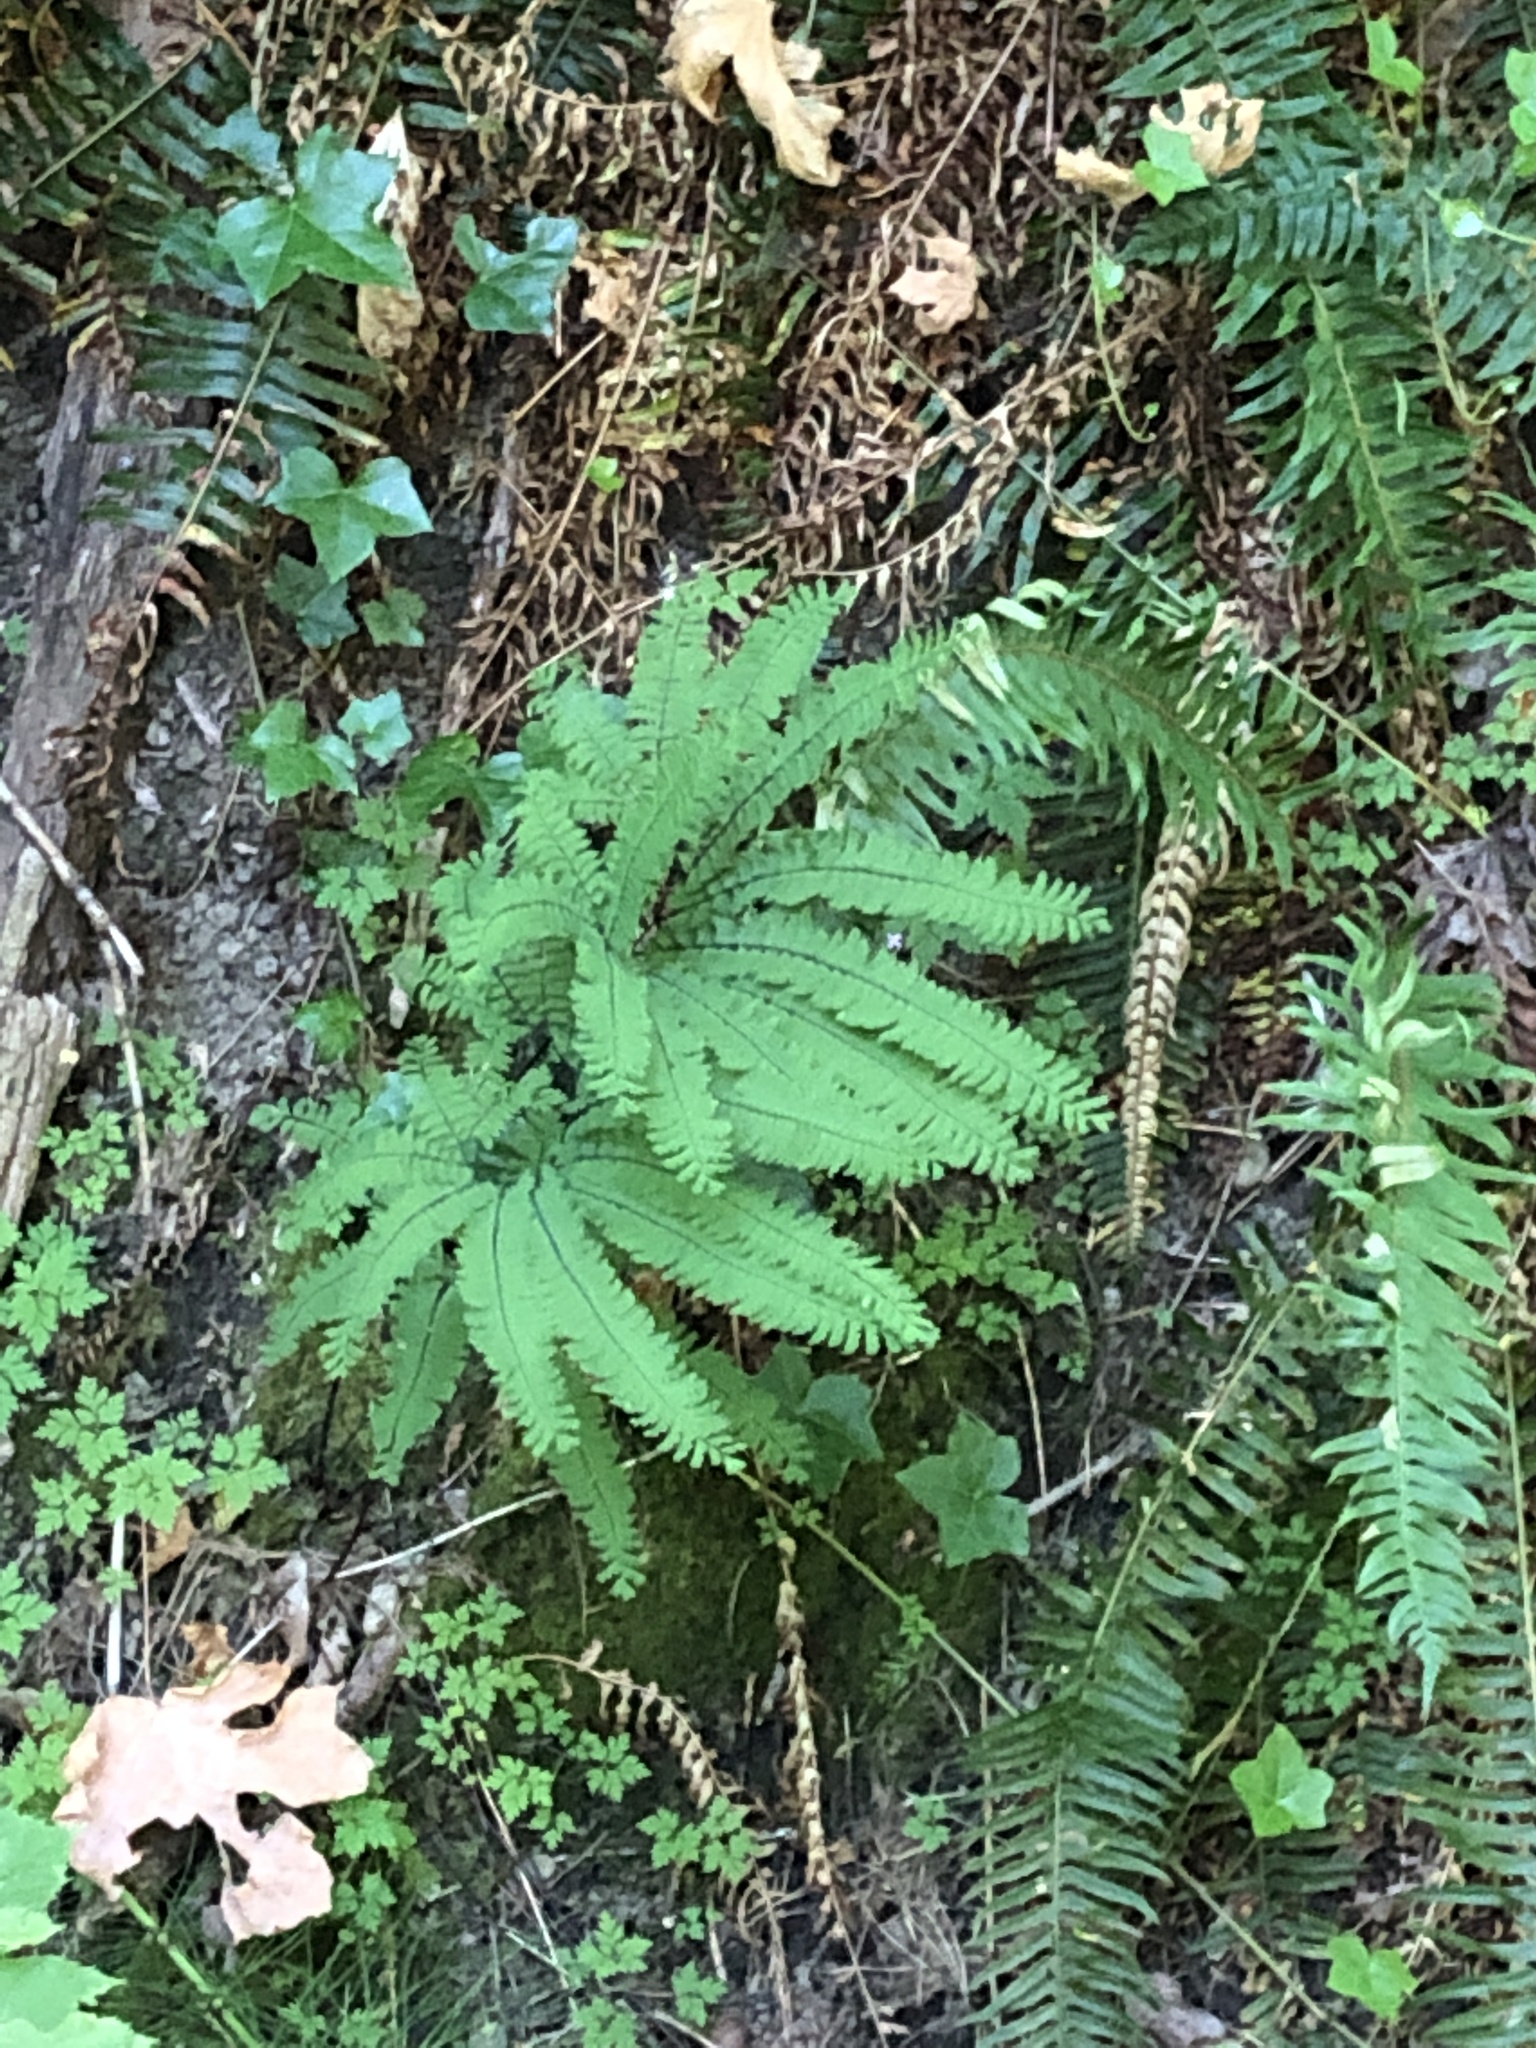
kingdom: Plantae
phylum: Tracheophyta
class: Polypodiopsida
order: Polypodiales
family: Pteridaceae
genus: Adiantum
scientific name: Adiantum aleuticum
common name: Aleutian maidenhair fern
